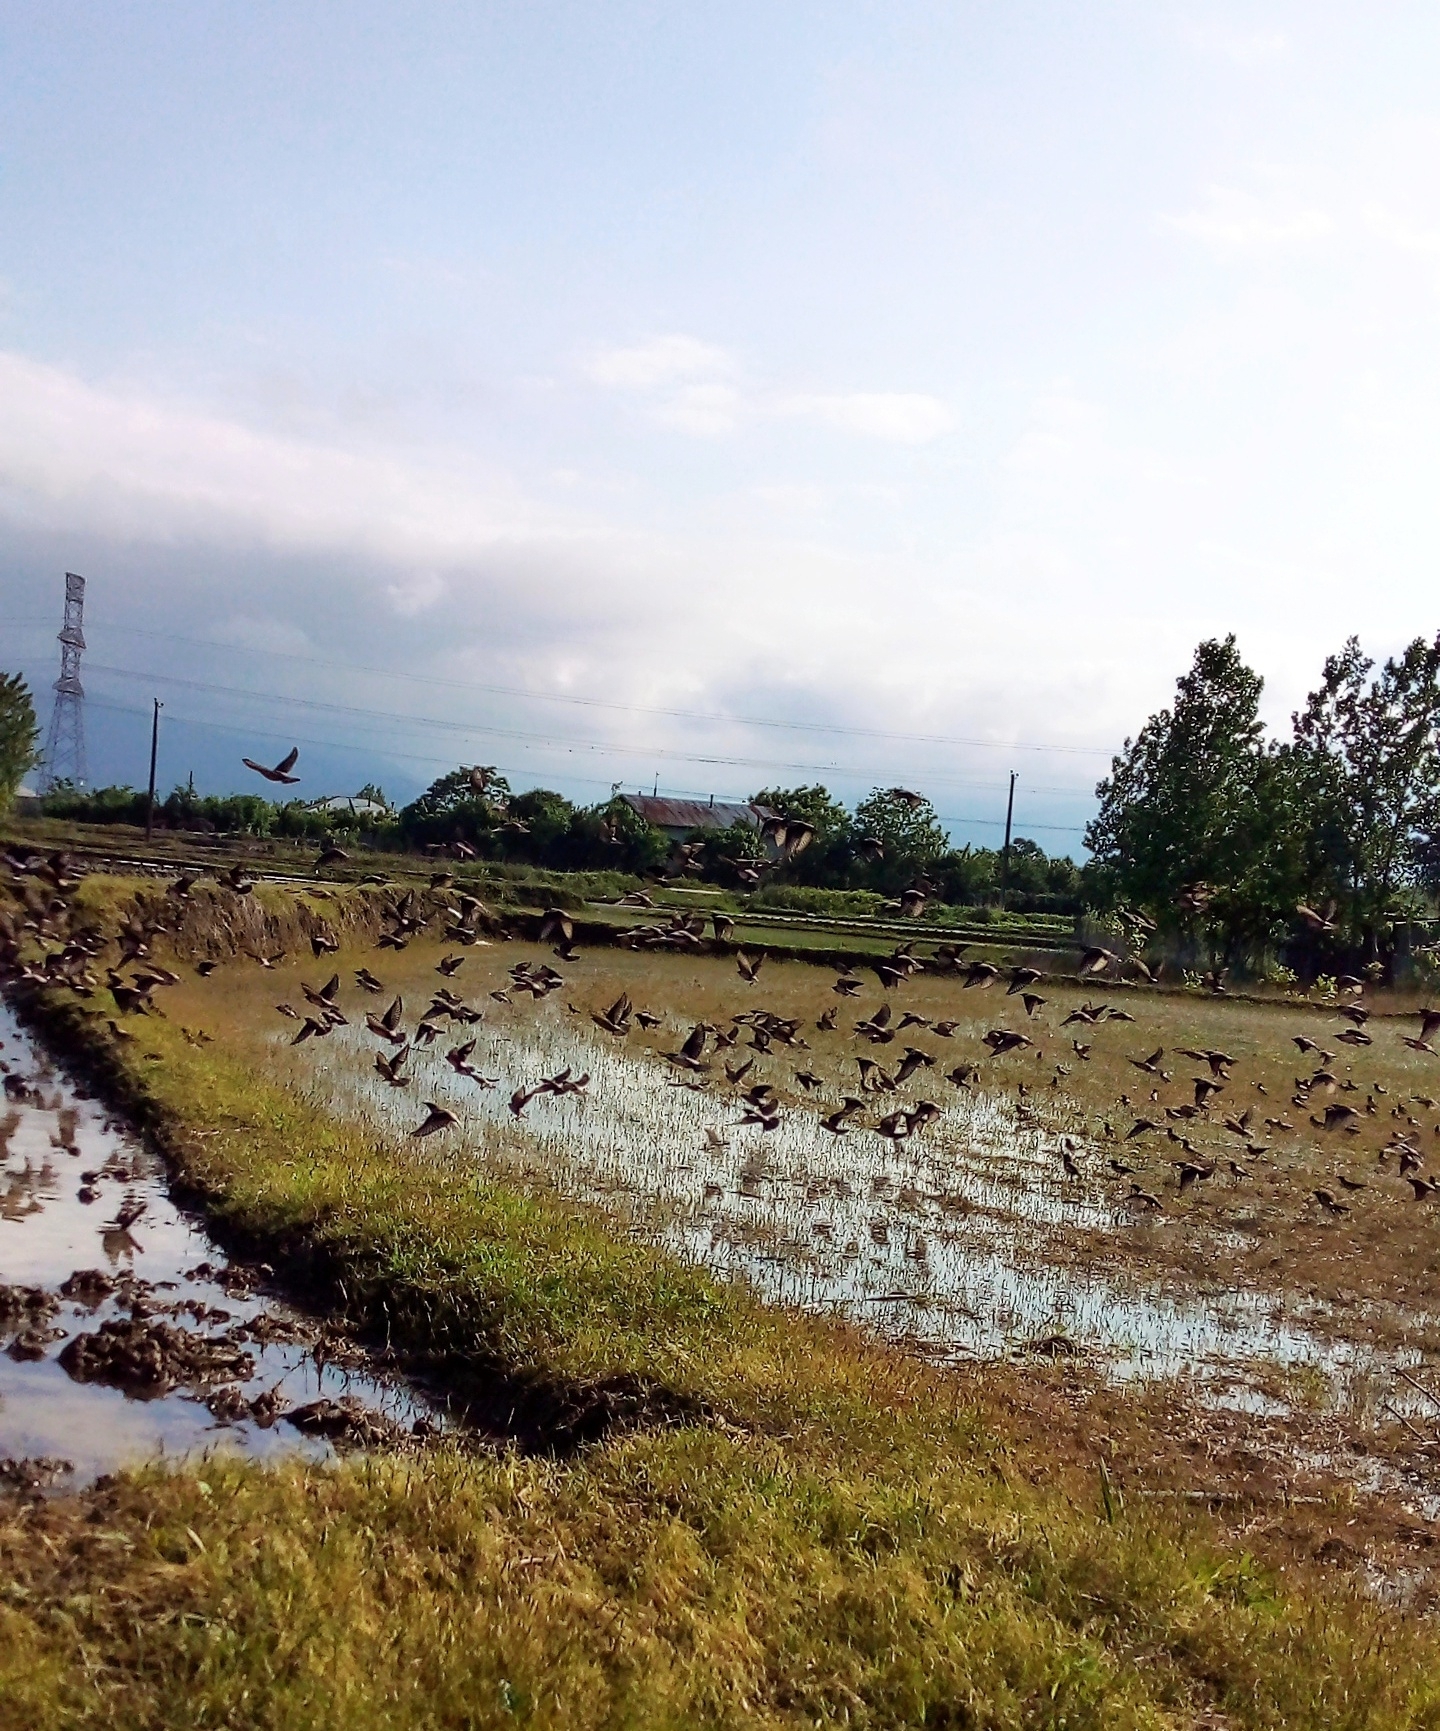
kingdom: Animalia
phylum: Chordata
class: Aves
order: Passeriformes
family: Sturnidae
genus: Pastor
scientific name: Pastor roseus
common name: Rosy starling
